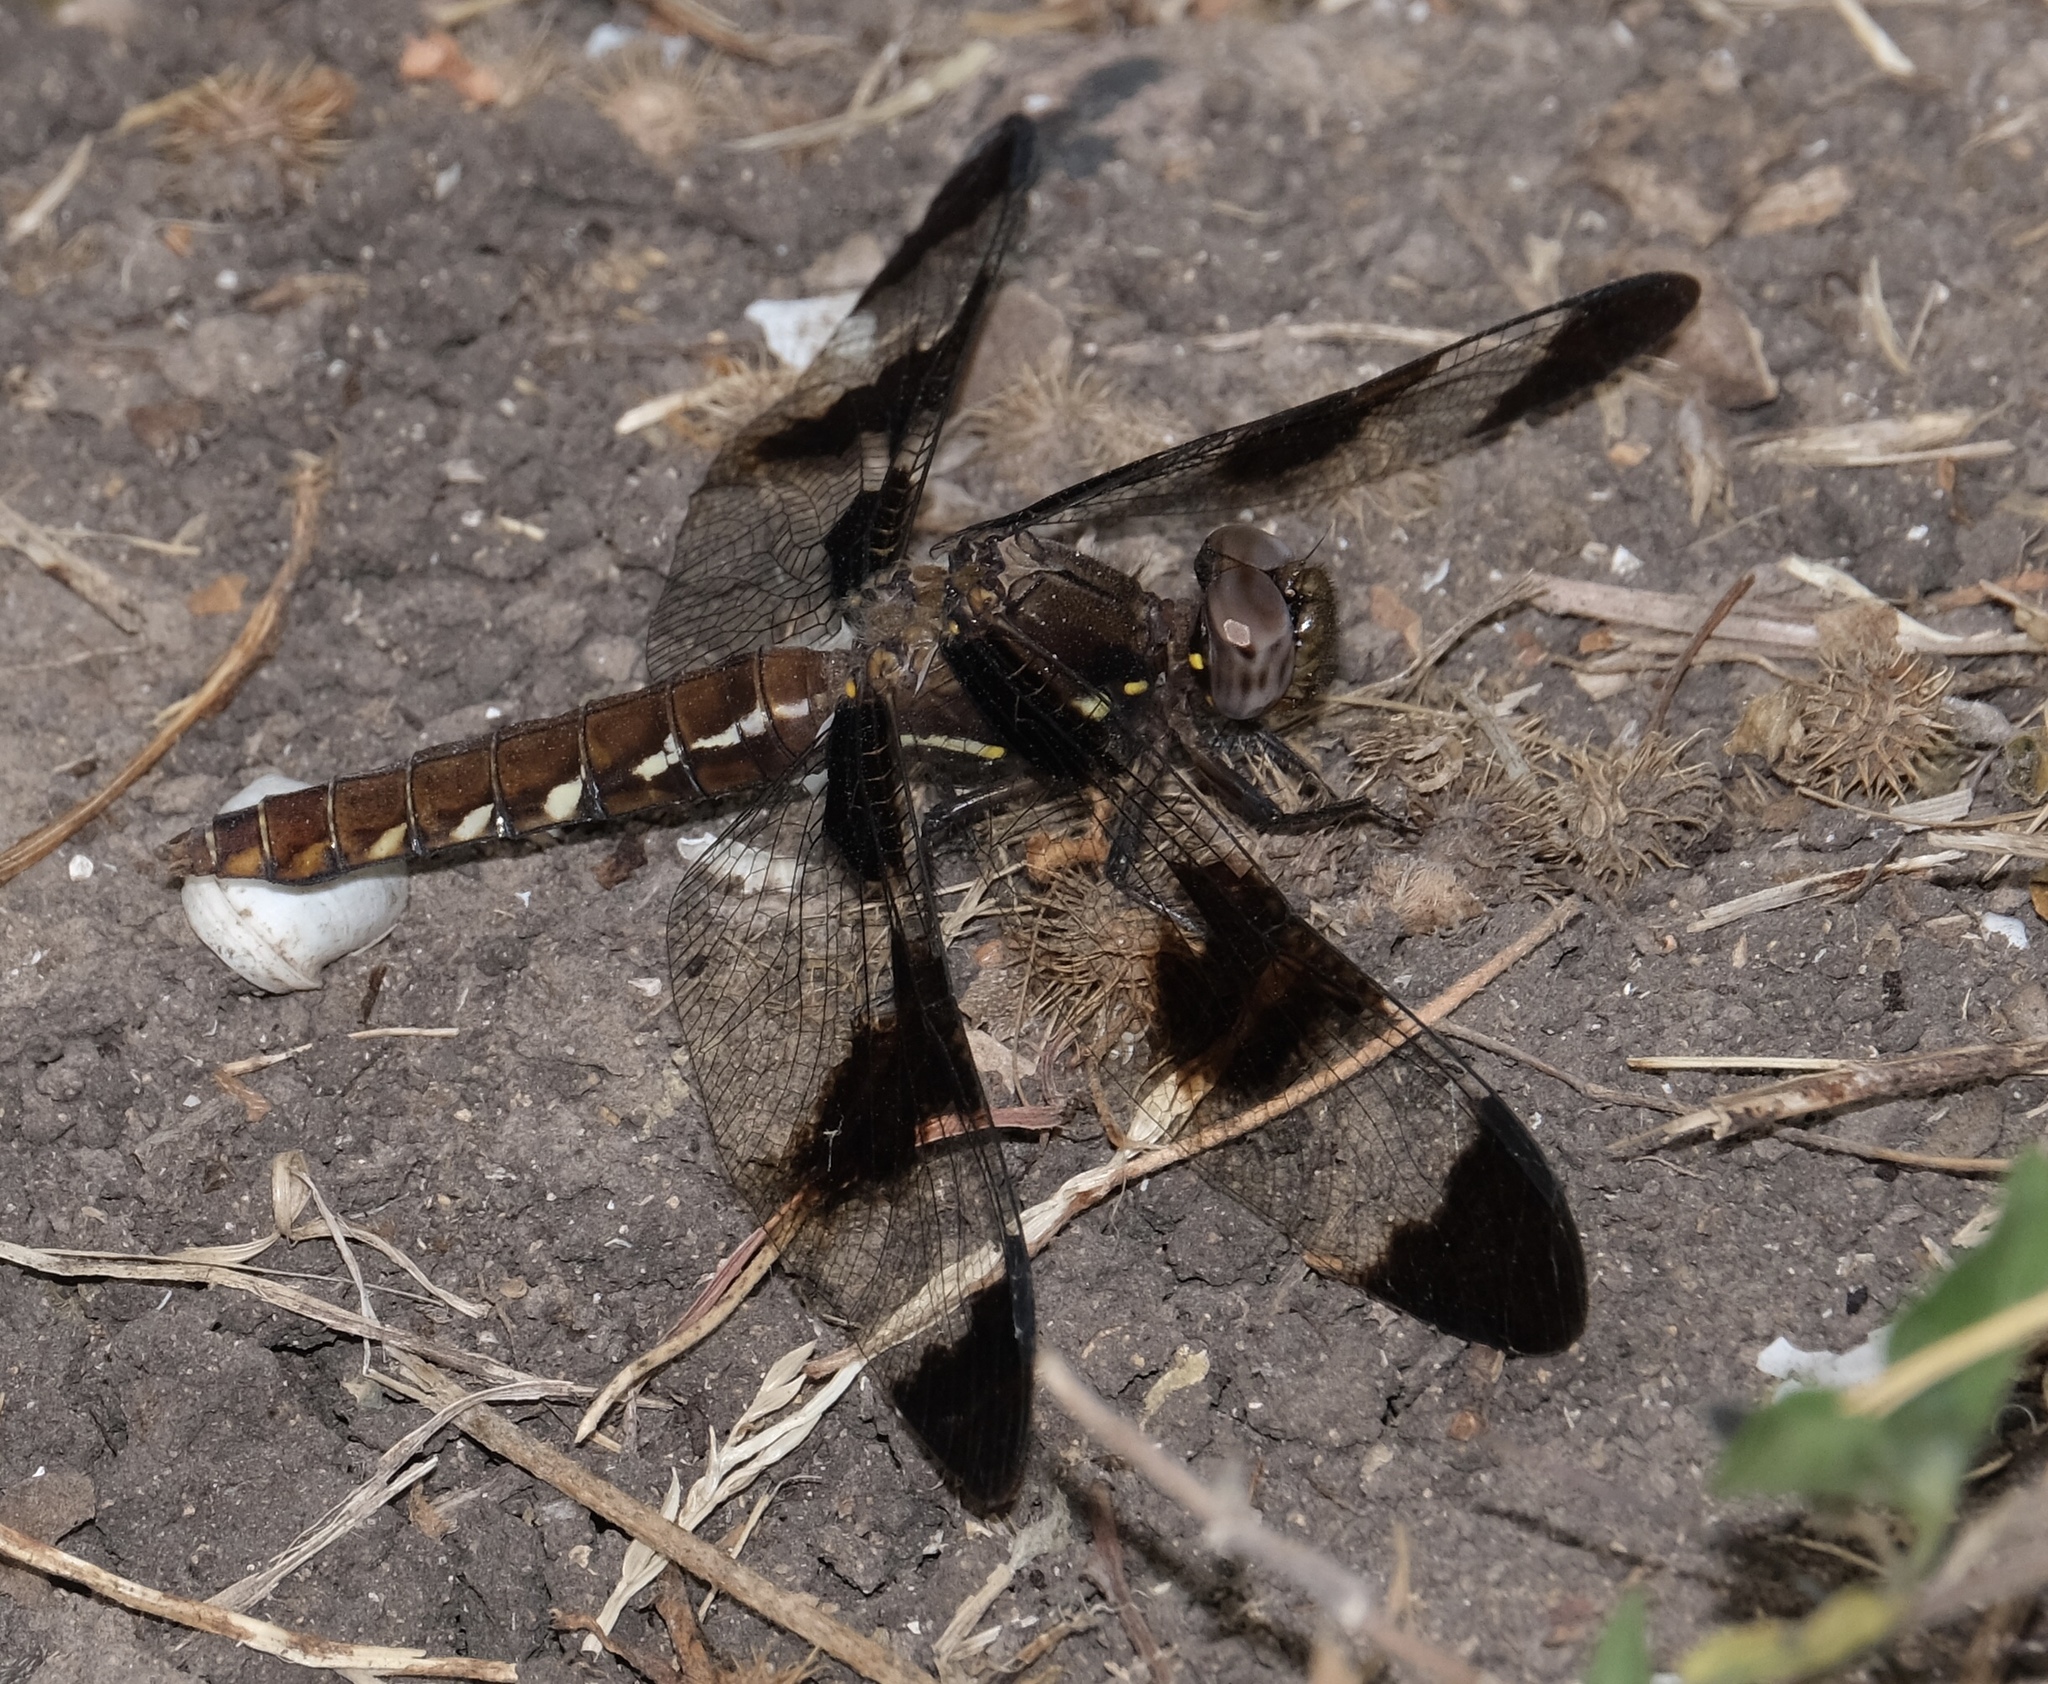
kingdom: Animalia
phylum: Arthropoda
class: Insecta
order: Odonata
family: Libellulidae
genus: Plathemis
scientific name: Plathemis lydia
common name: Common whitetail
